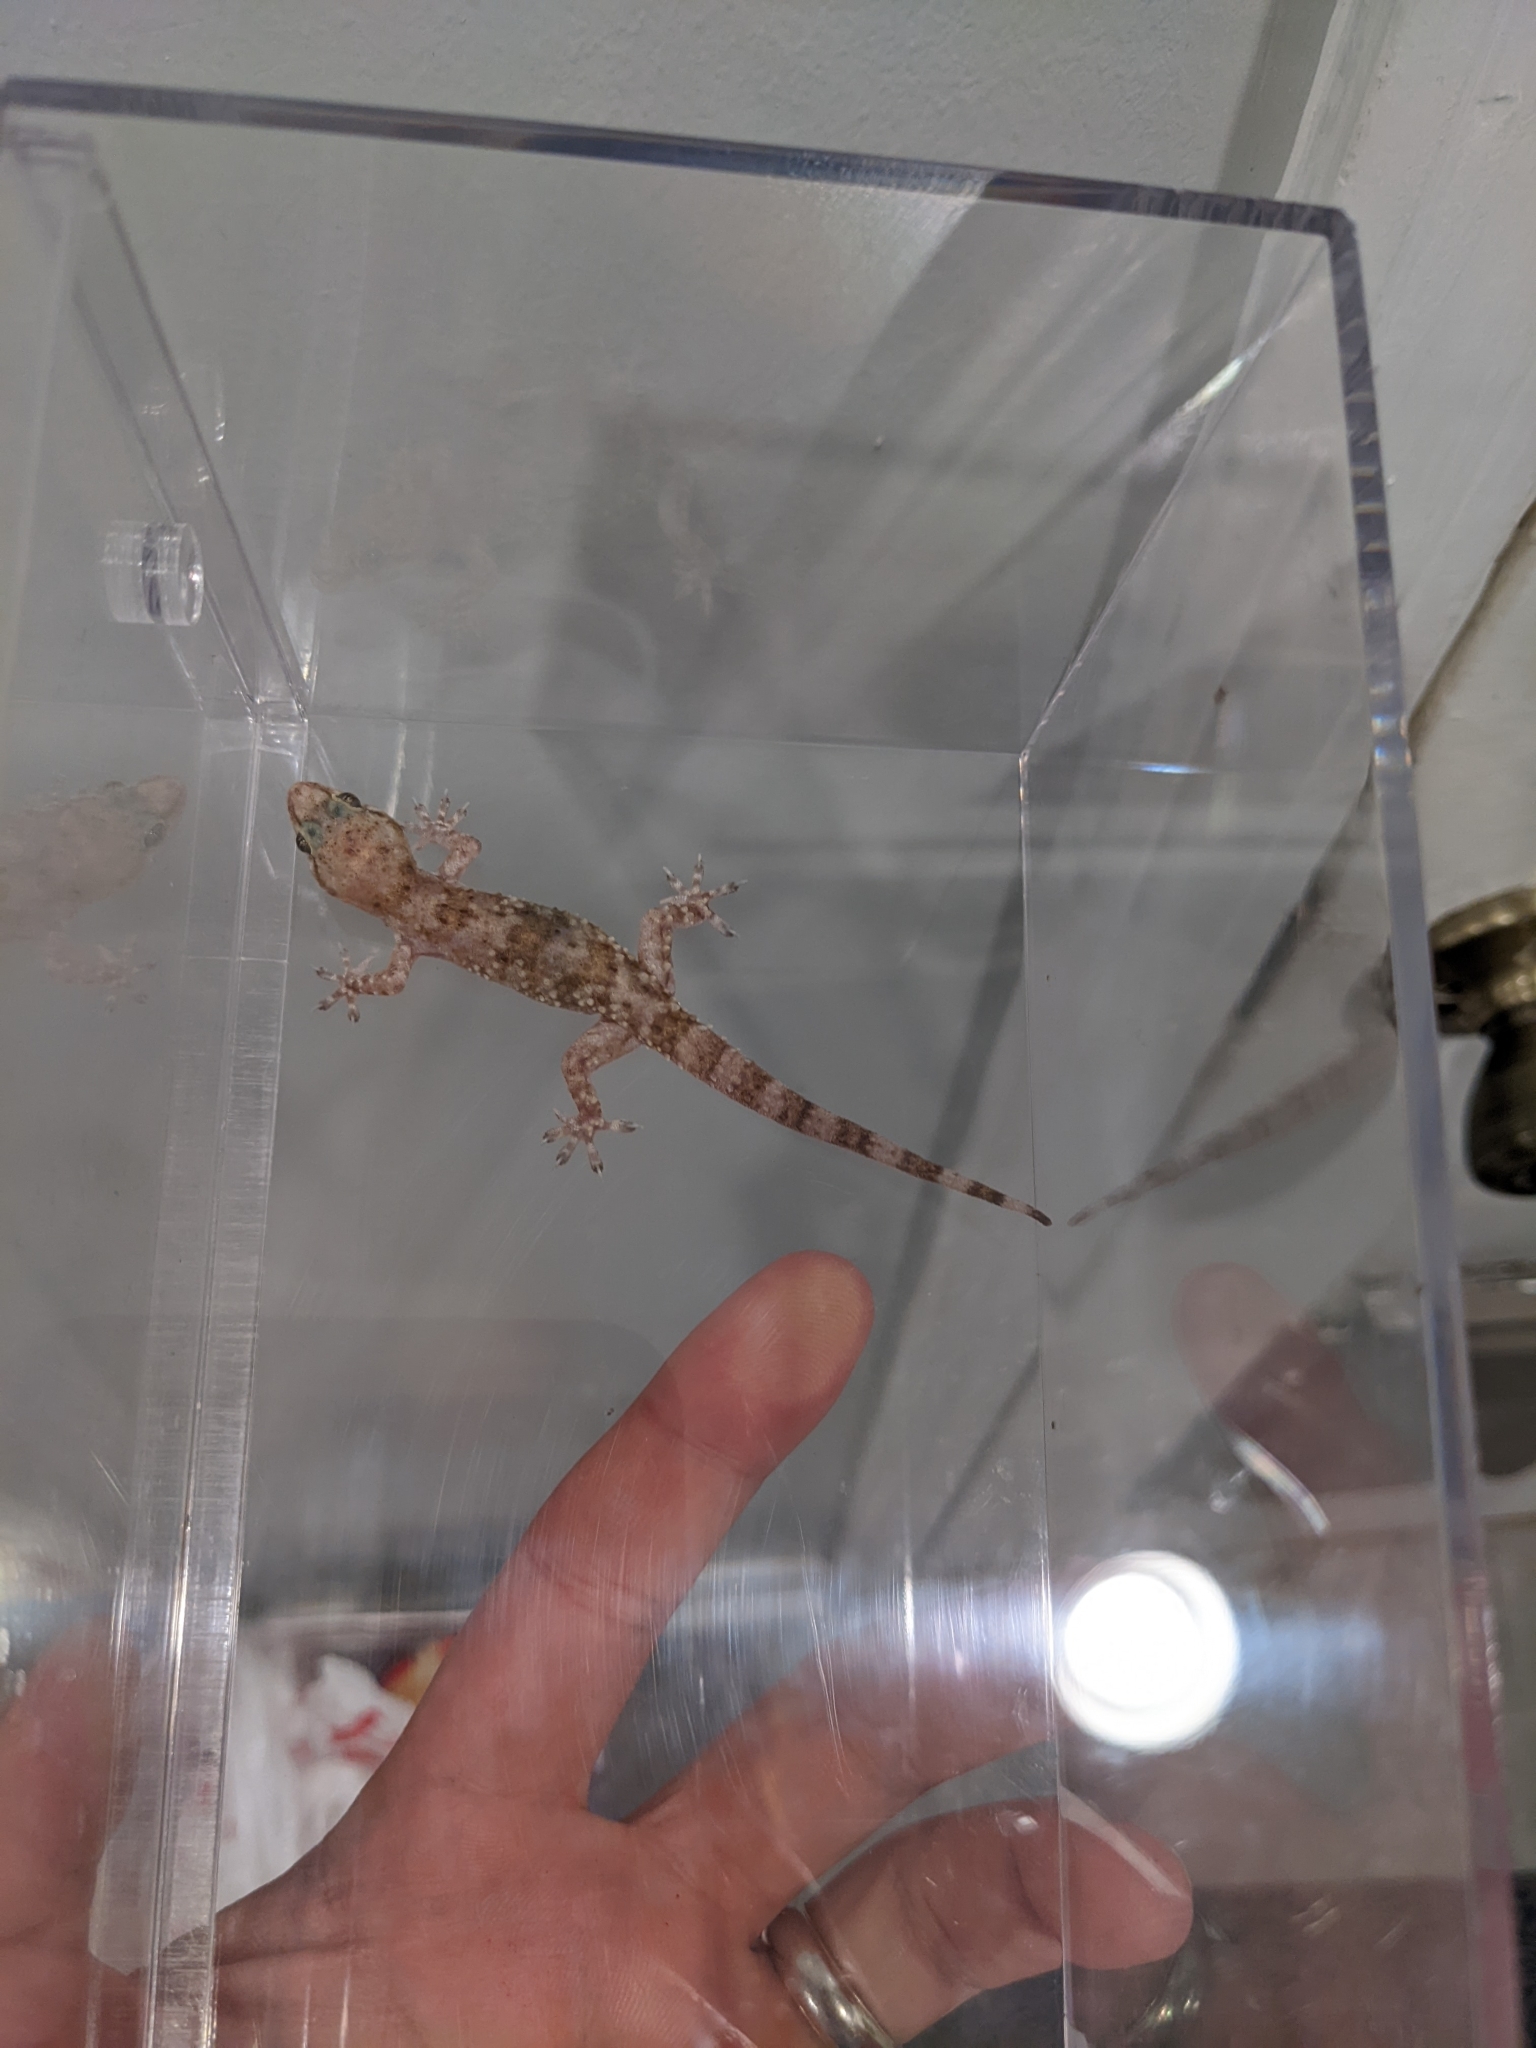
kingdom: Animalia
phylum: Chordata
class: Squamata
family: Gekkonidae
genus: Hemidactylus
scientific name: Hemidactylus turcicus
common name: Turkish gecko
